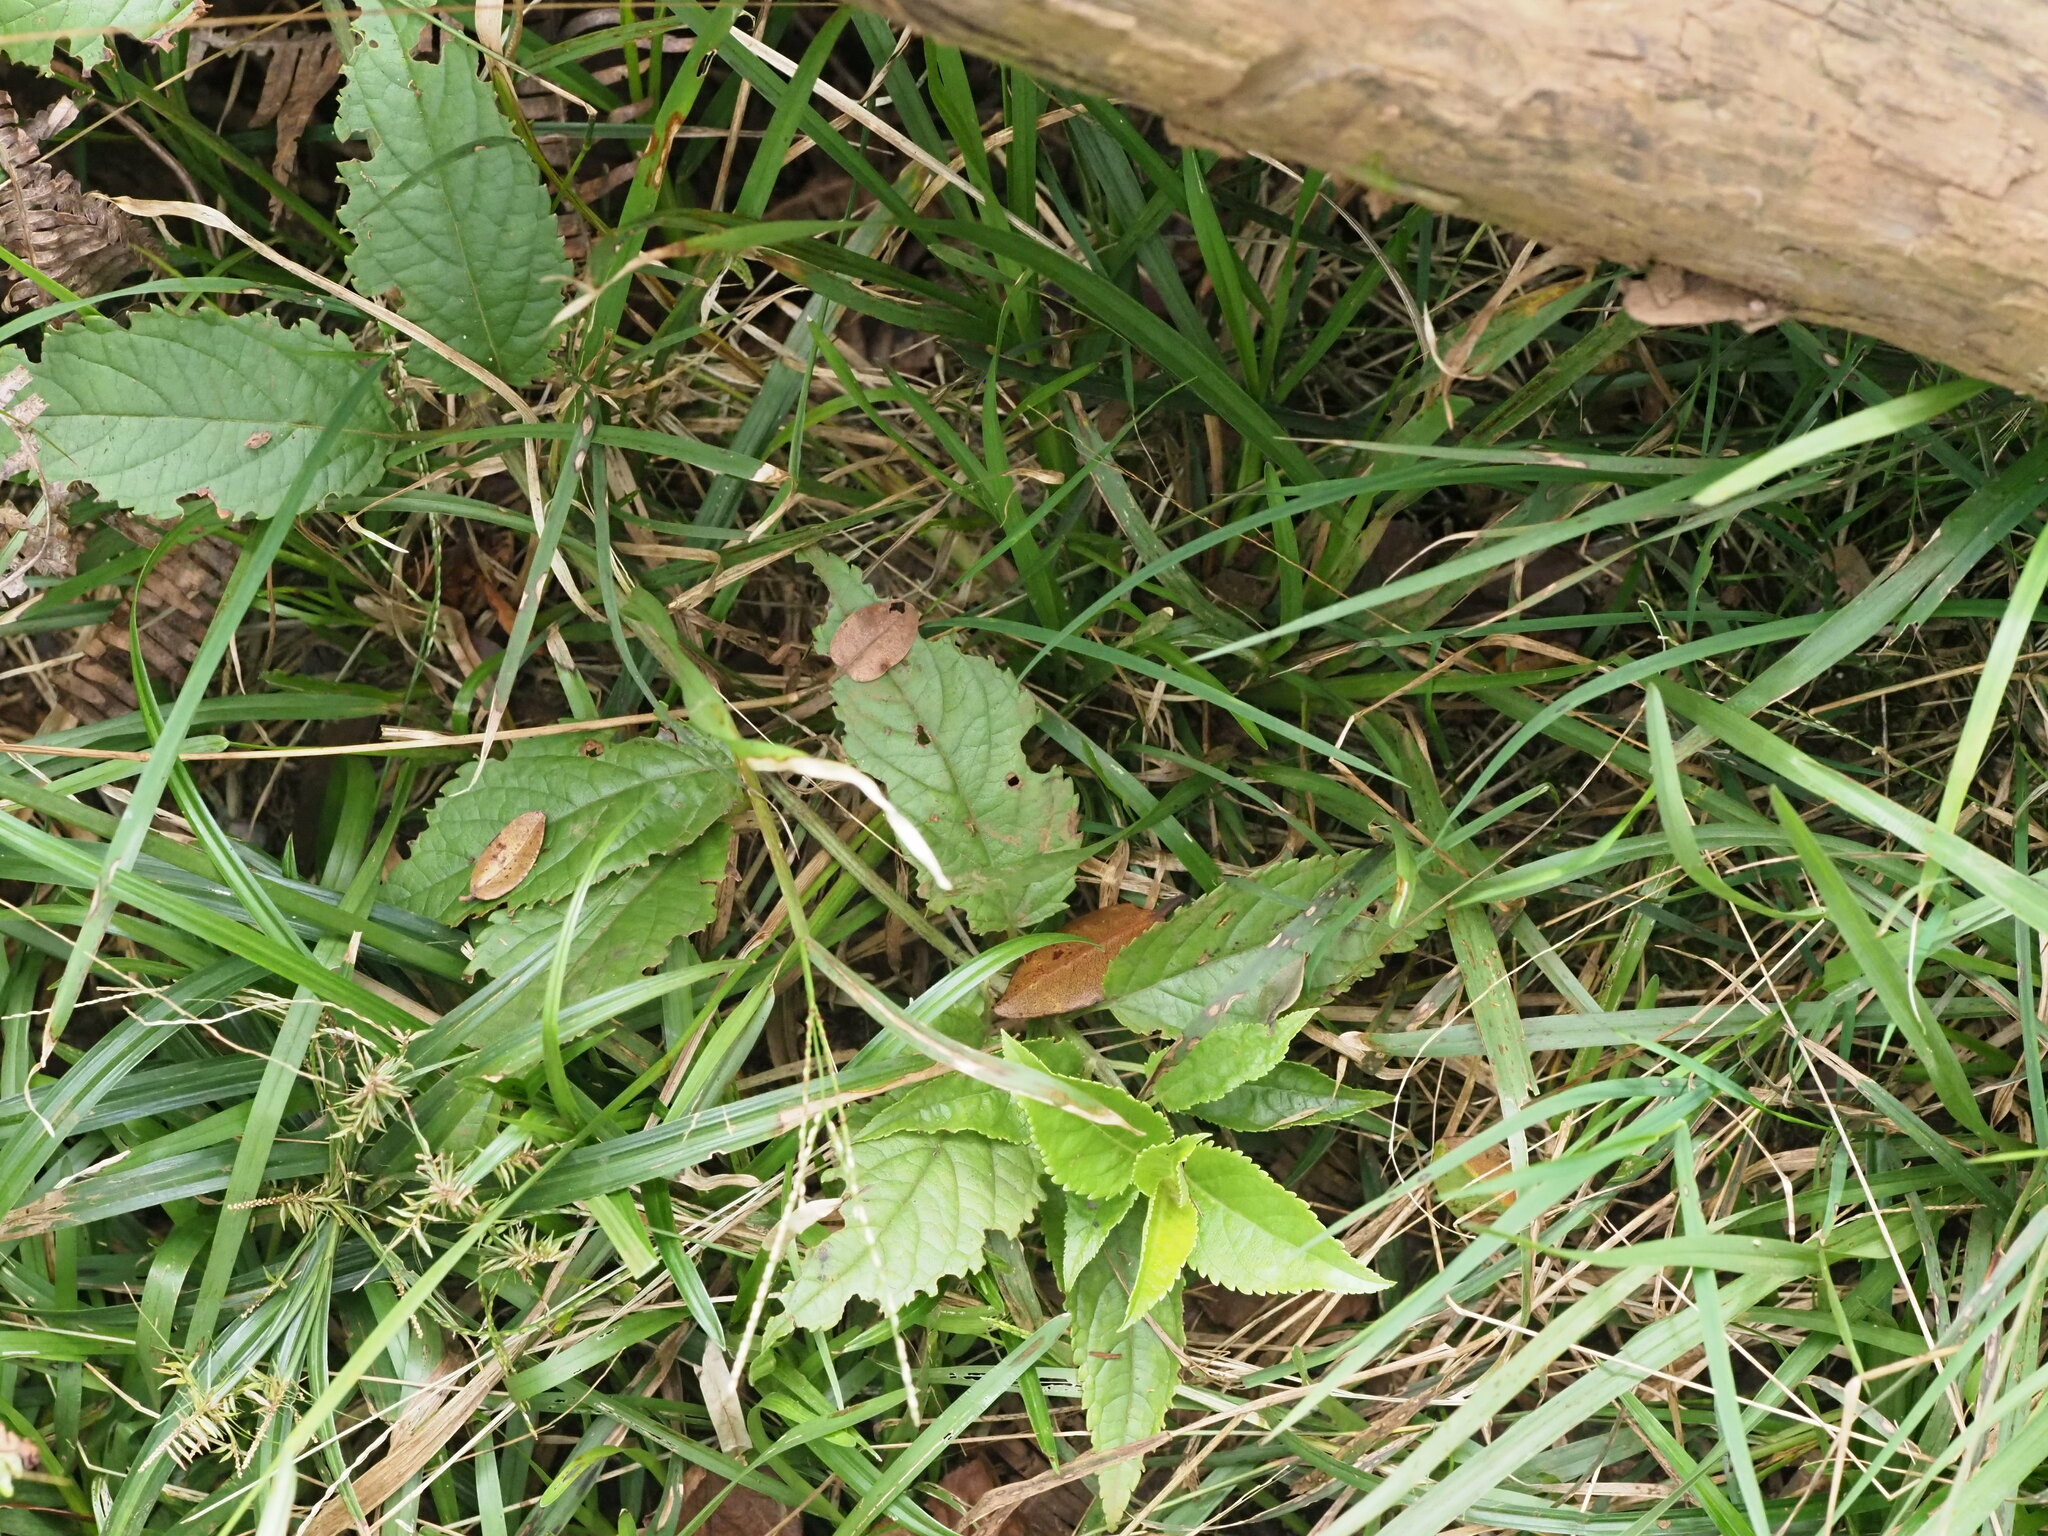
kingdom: Plantae
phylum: Tracheophyta
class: Magnoliopsida
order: Lamiales
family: Lamiaceae
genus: Stenogyne
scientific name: Stenogyne purpurea
